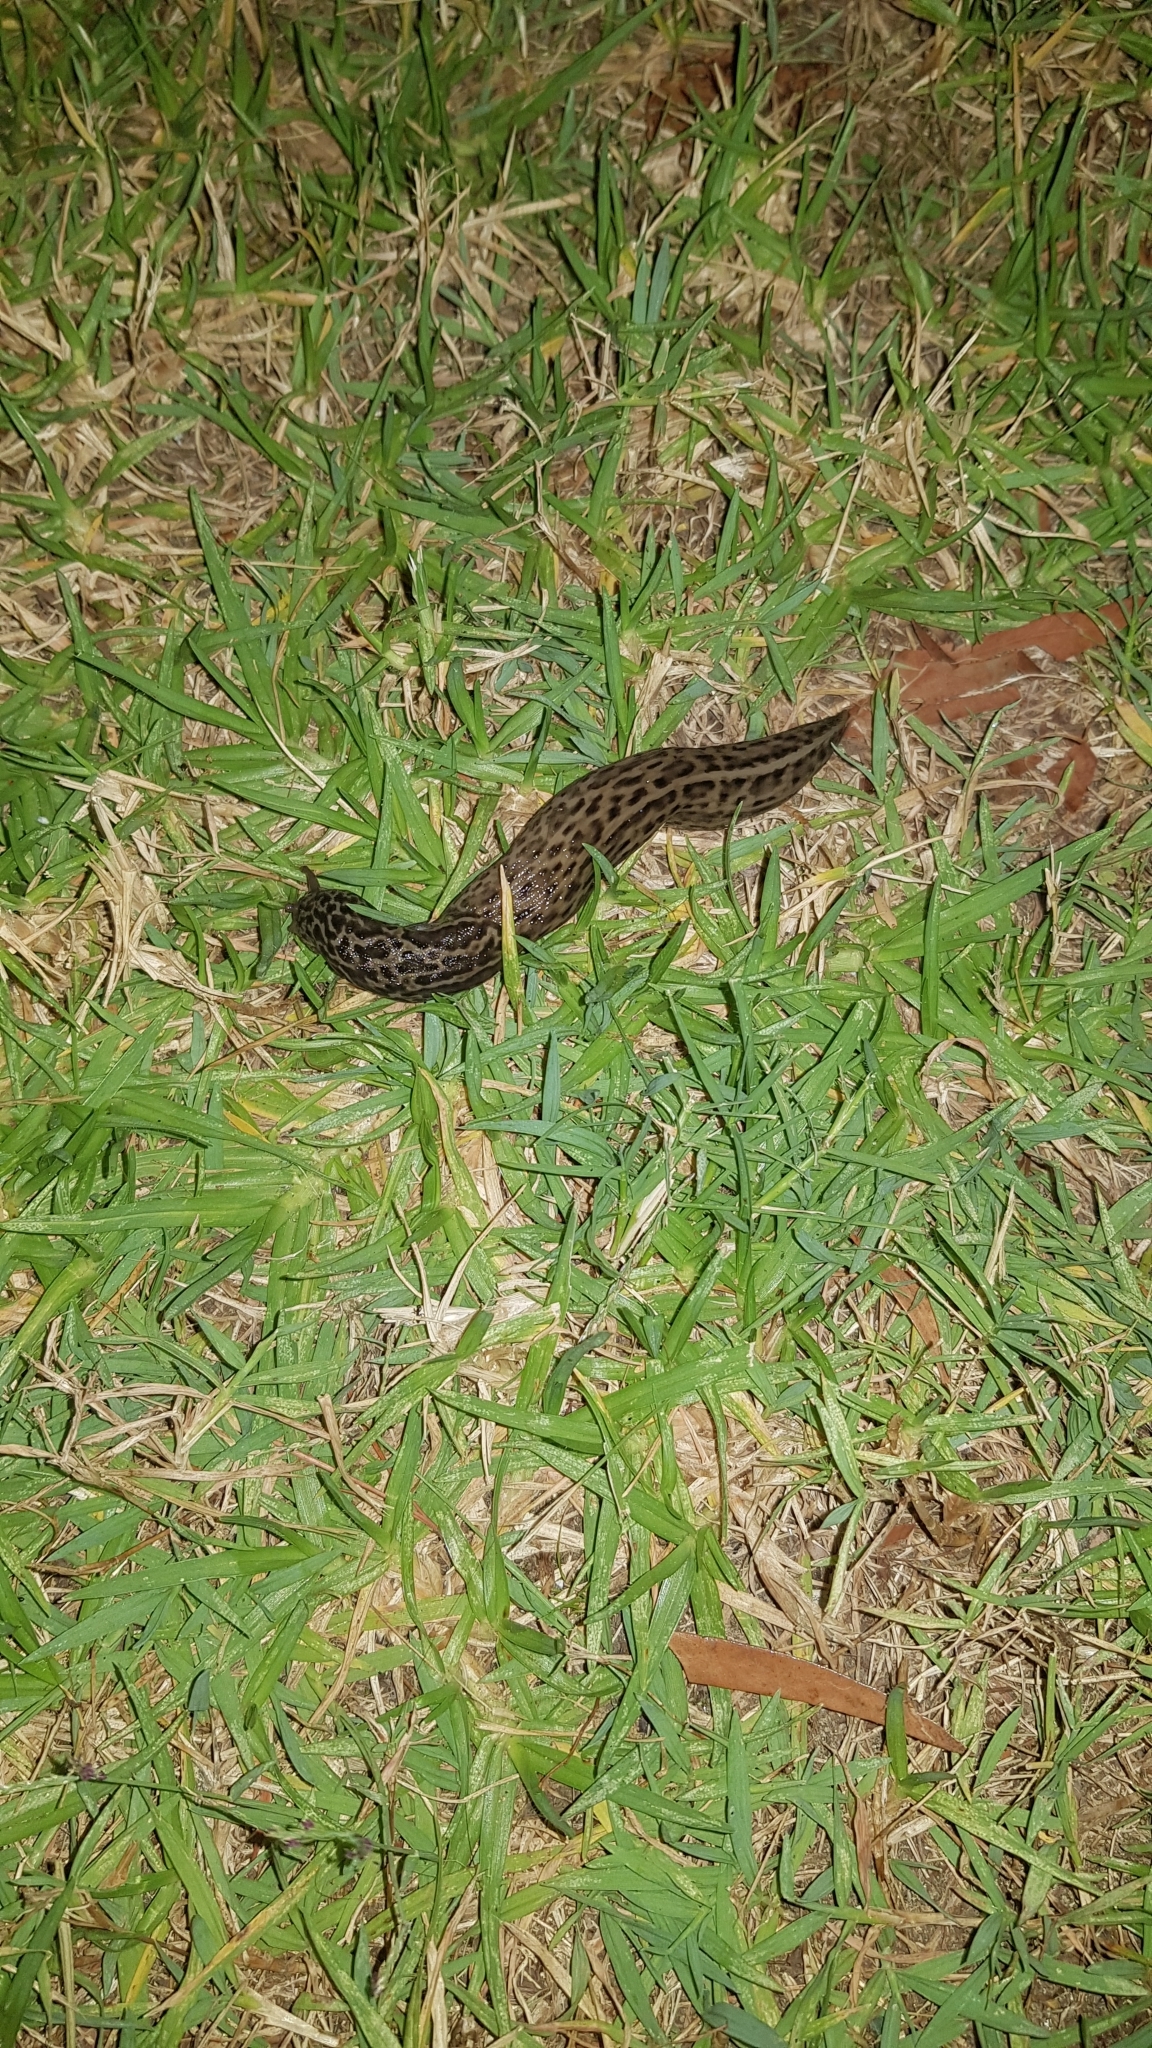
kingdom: Animalia
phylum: Mollusca
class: Gastropoda
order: Stylommatophora
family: Limacidae
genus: Limax
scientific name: Limax maximus
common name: Great grey slug
